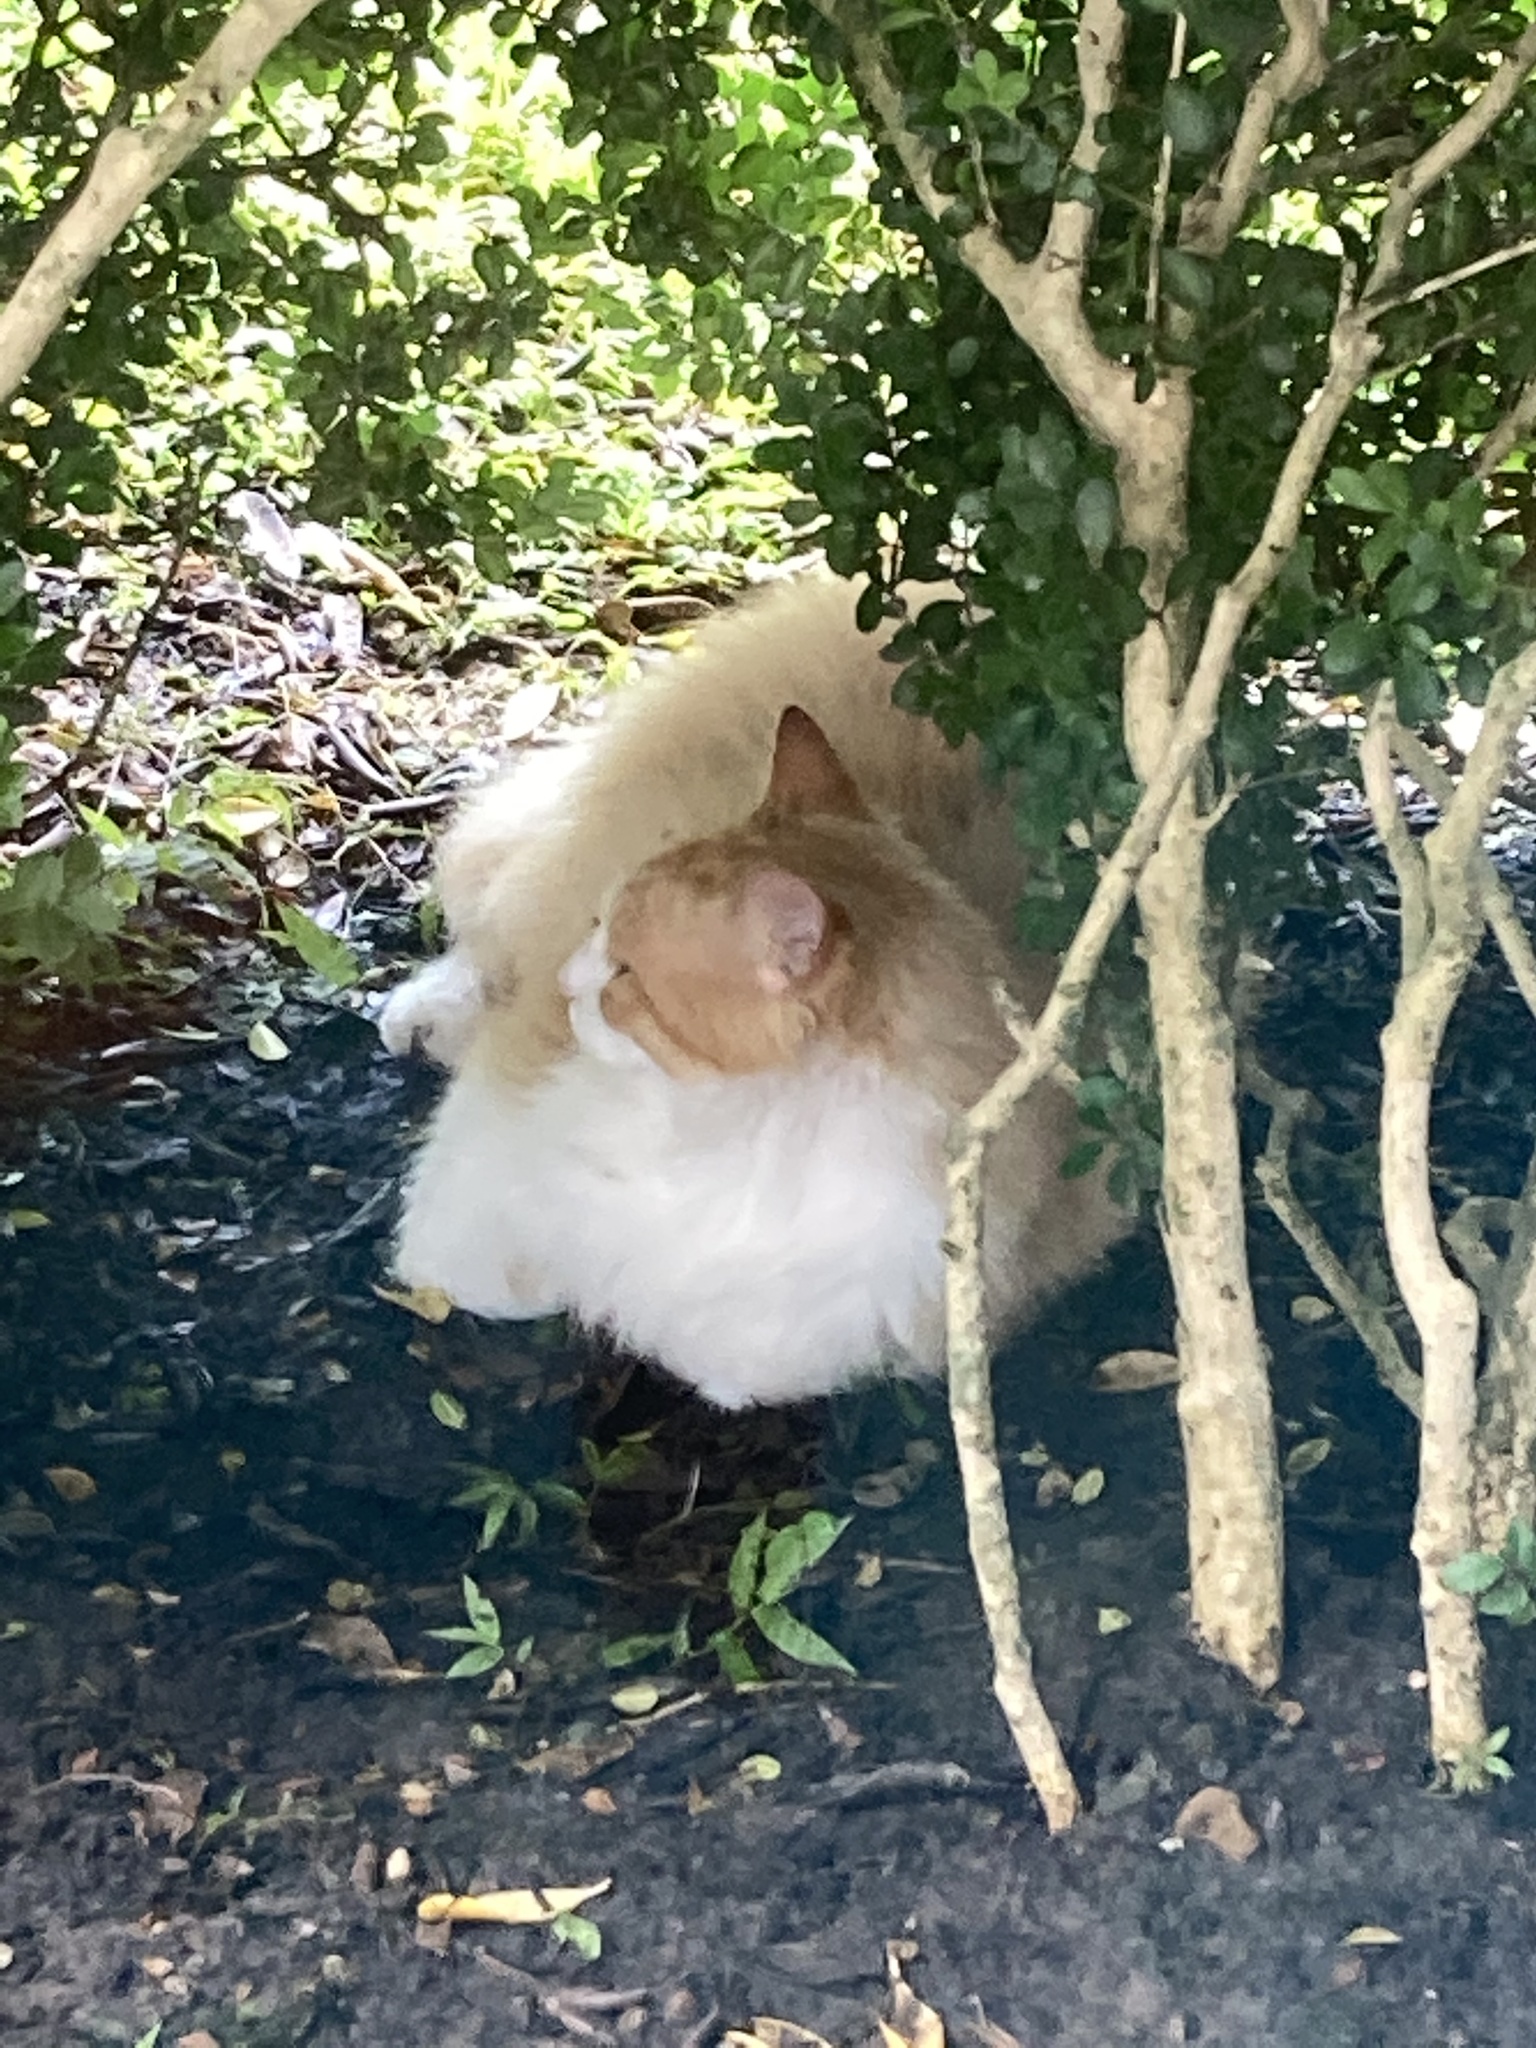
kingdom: Animalia
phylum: Chordata
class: Mammalia
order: Carnivora
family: Felidae
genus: Felis
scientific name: Felis catus
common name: Domestic cat
